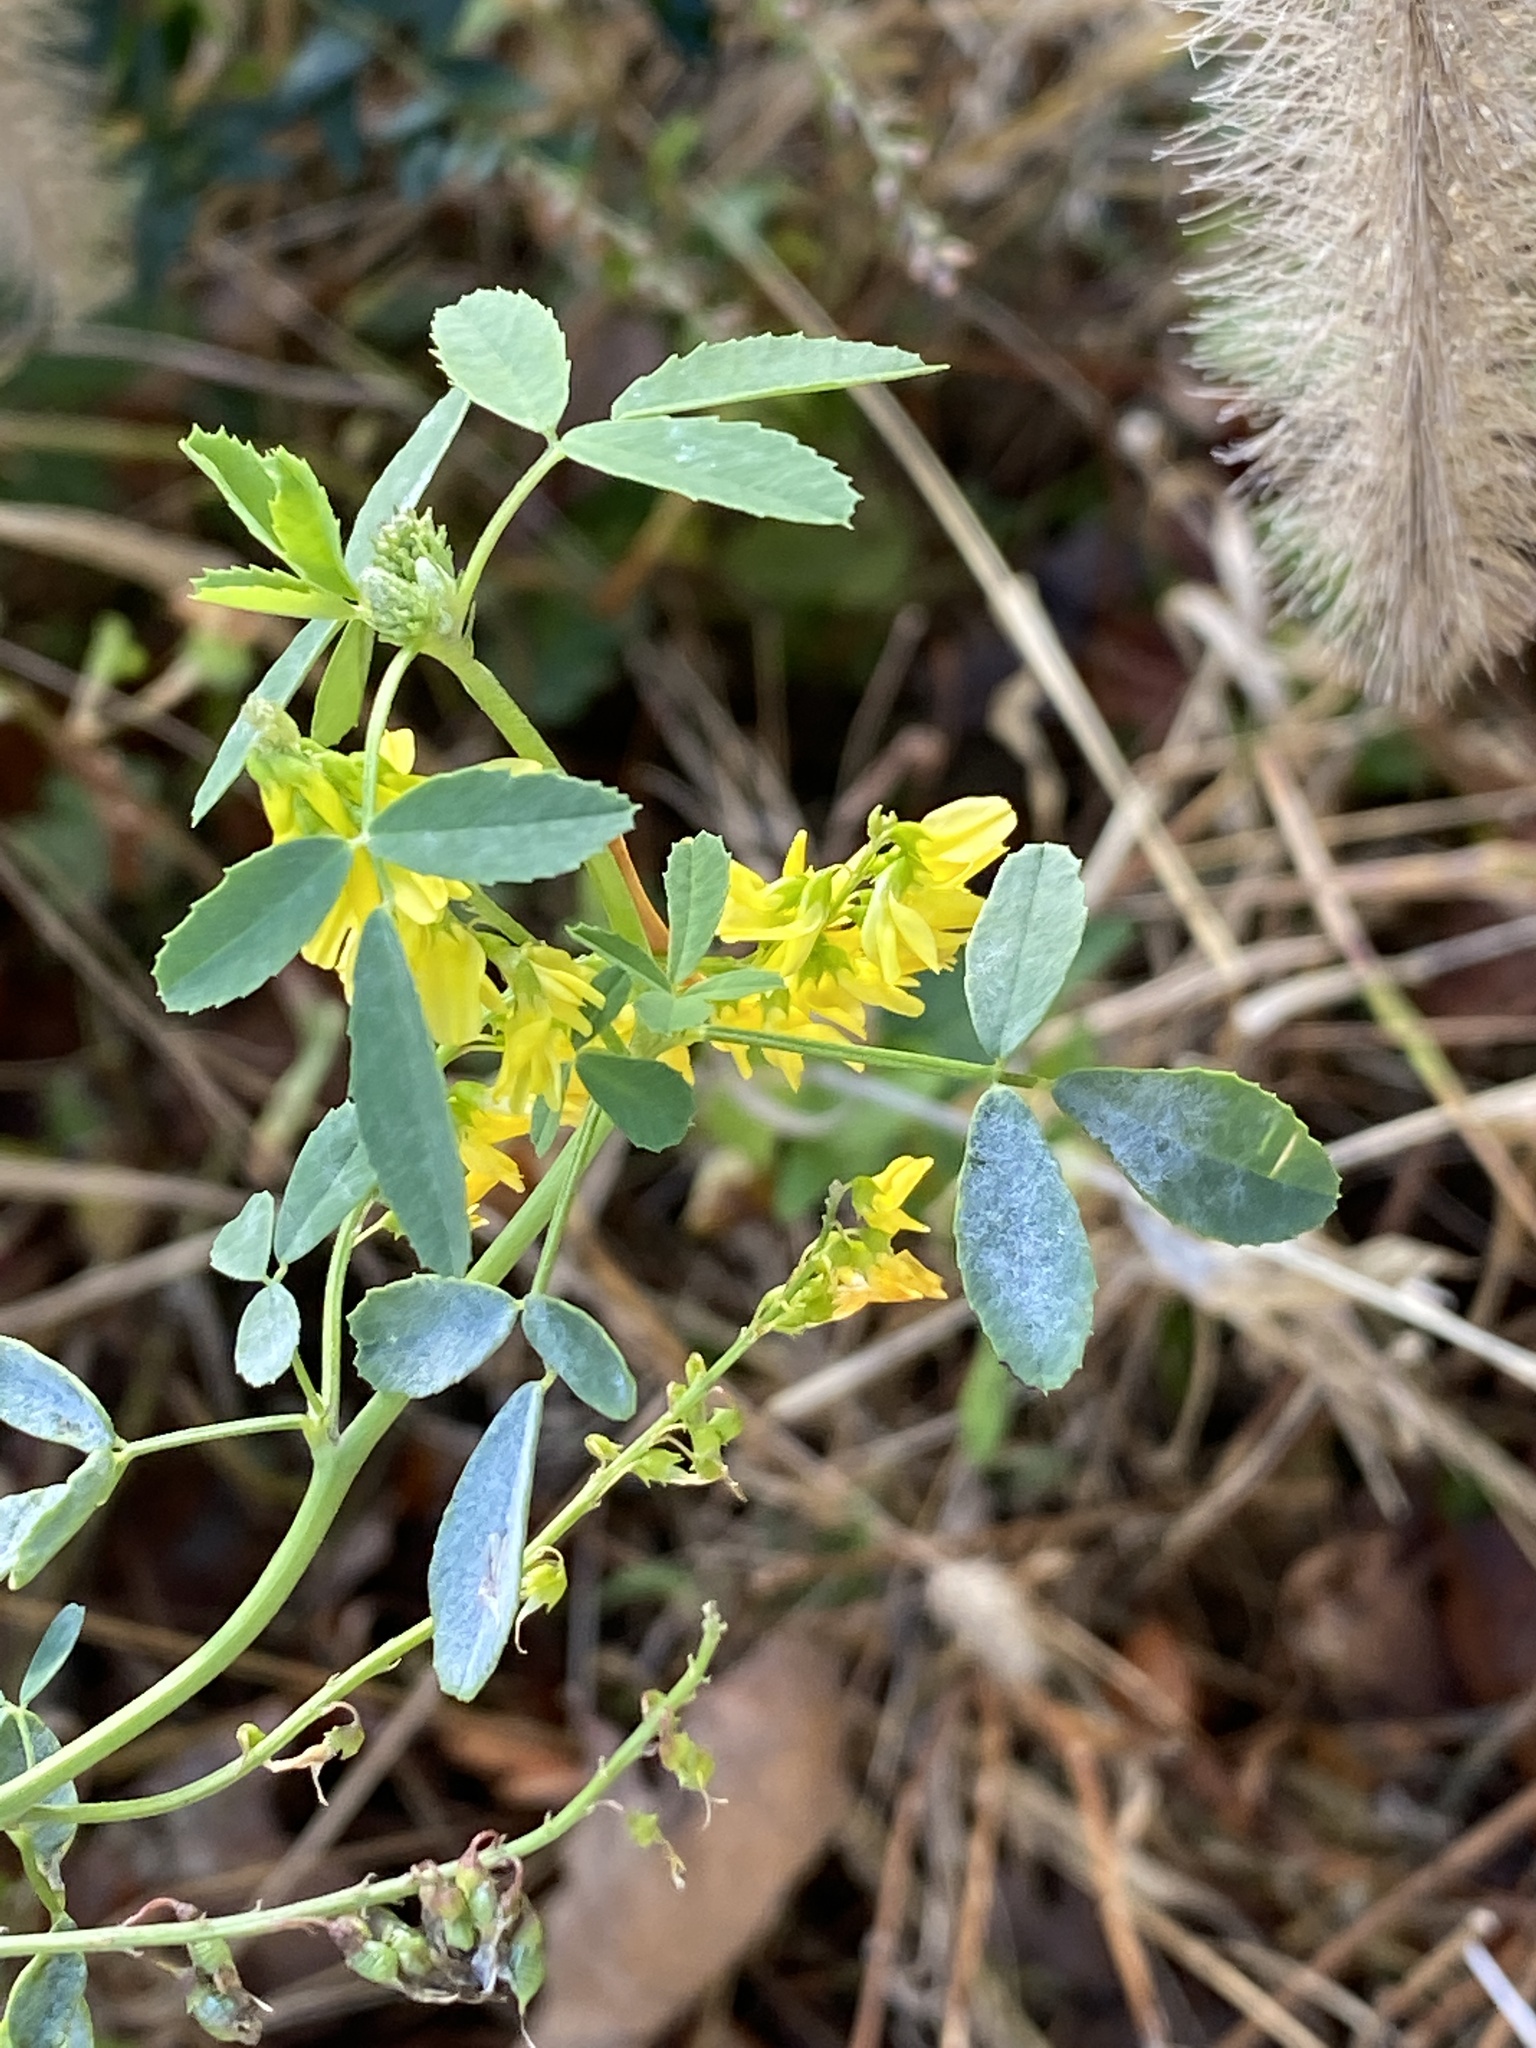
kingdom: Plantae
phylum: Tracheophyta
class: Magnoliopsida
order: Fabales
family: Fabaceae
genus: Melilotus
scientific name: Melilotus officinalis
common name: Sweetclover
